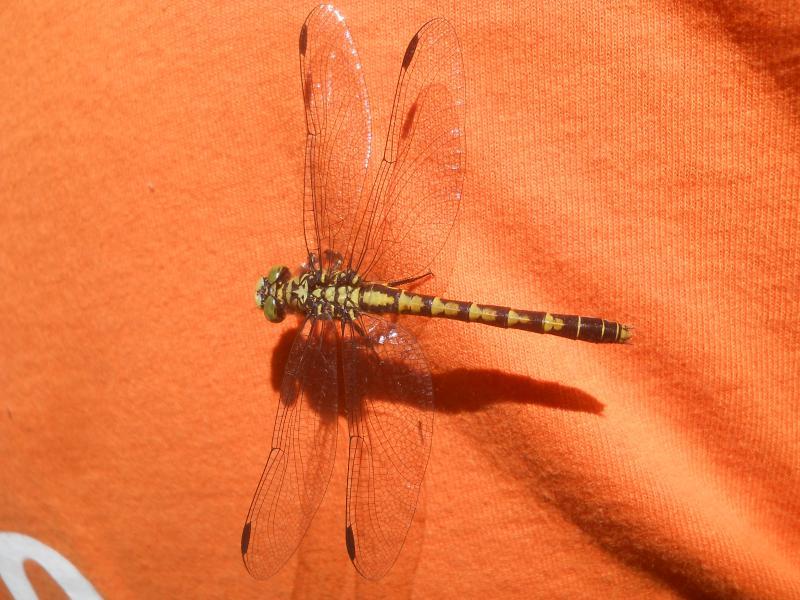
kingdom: Animalia
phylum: Arthropoda
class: Insecta
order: Odonata
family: Gomphidae
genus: Onychogomphus
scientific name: Onychogomphus forcipatus
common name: Small pincertail
